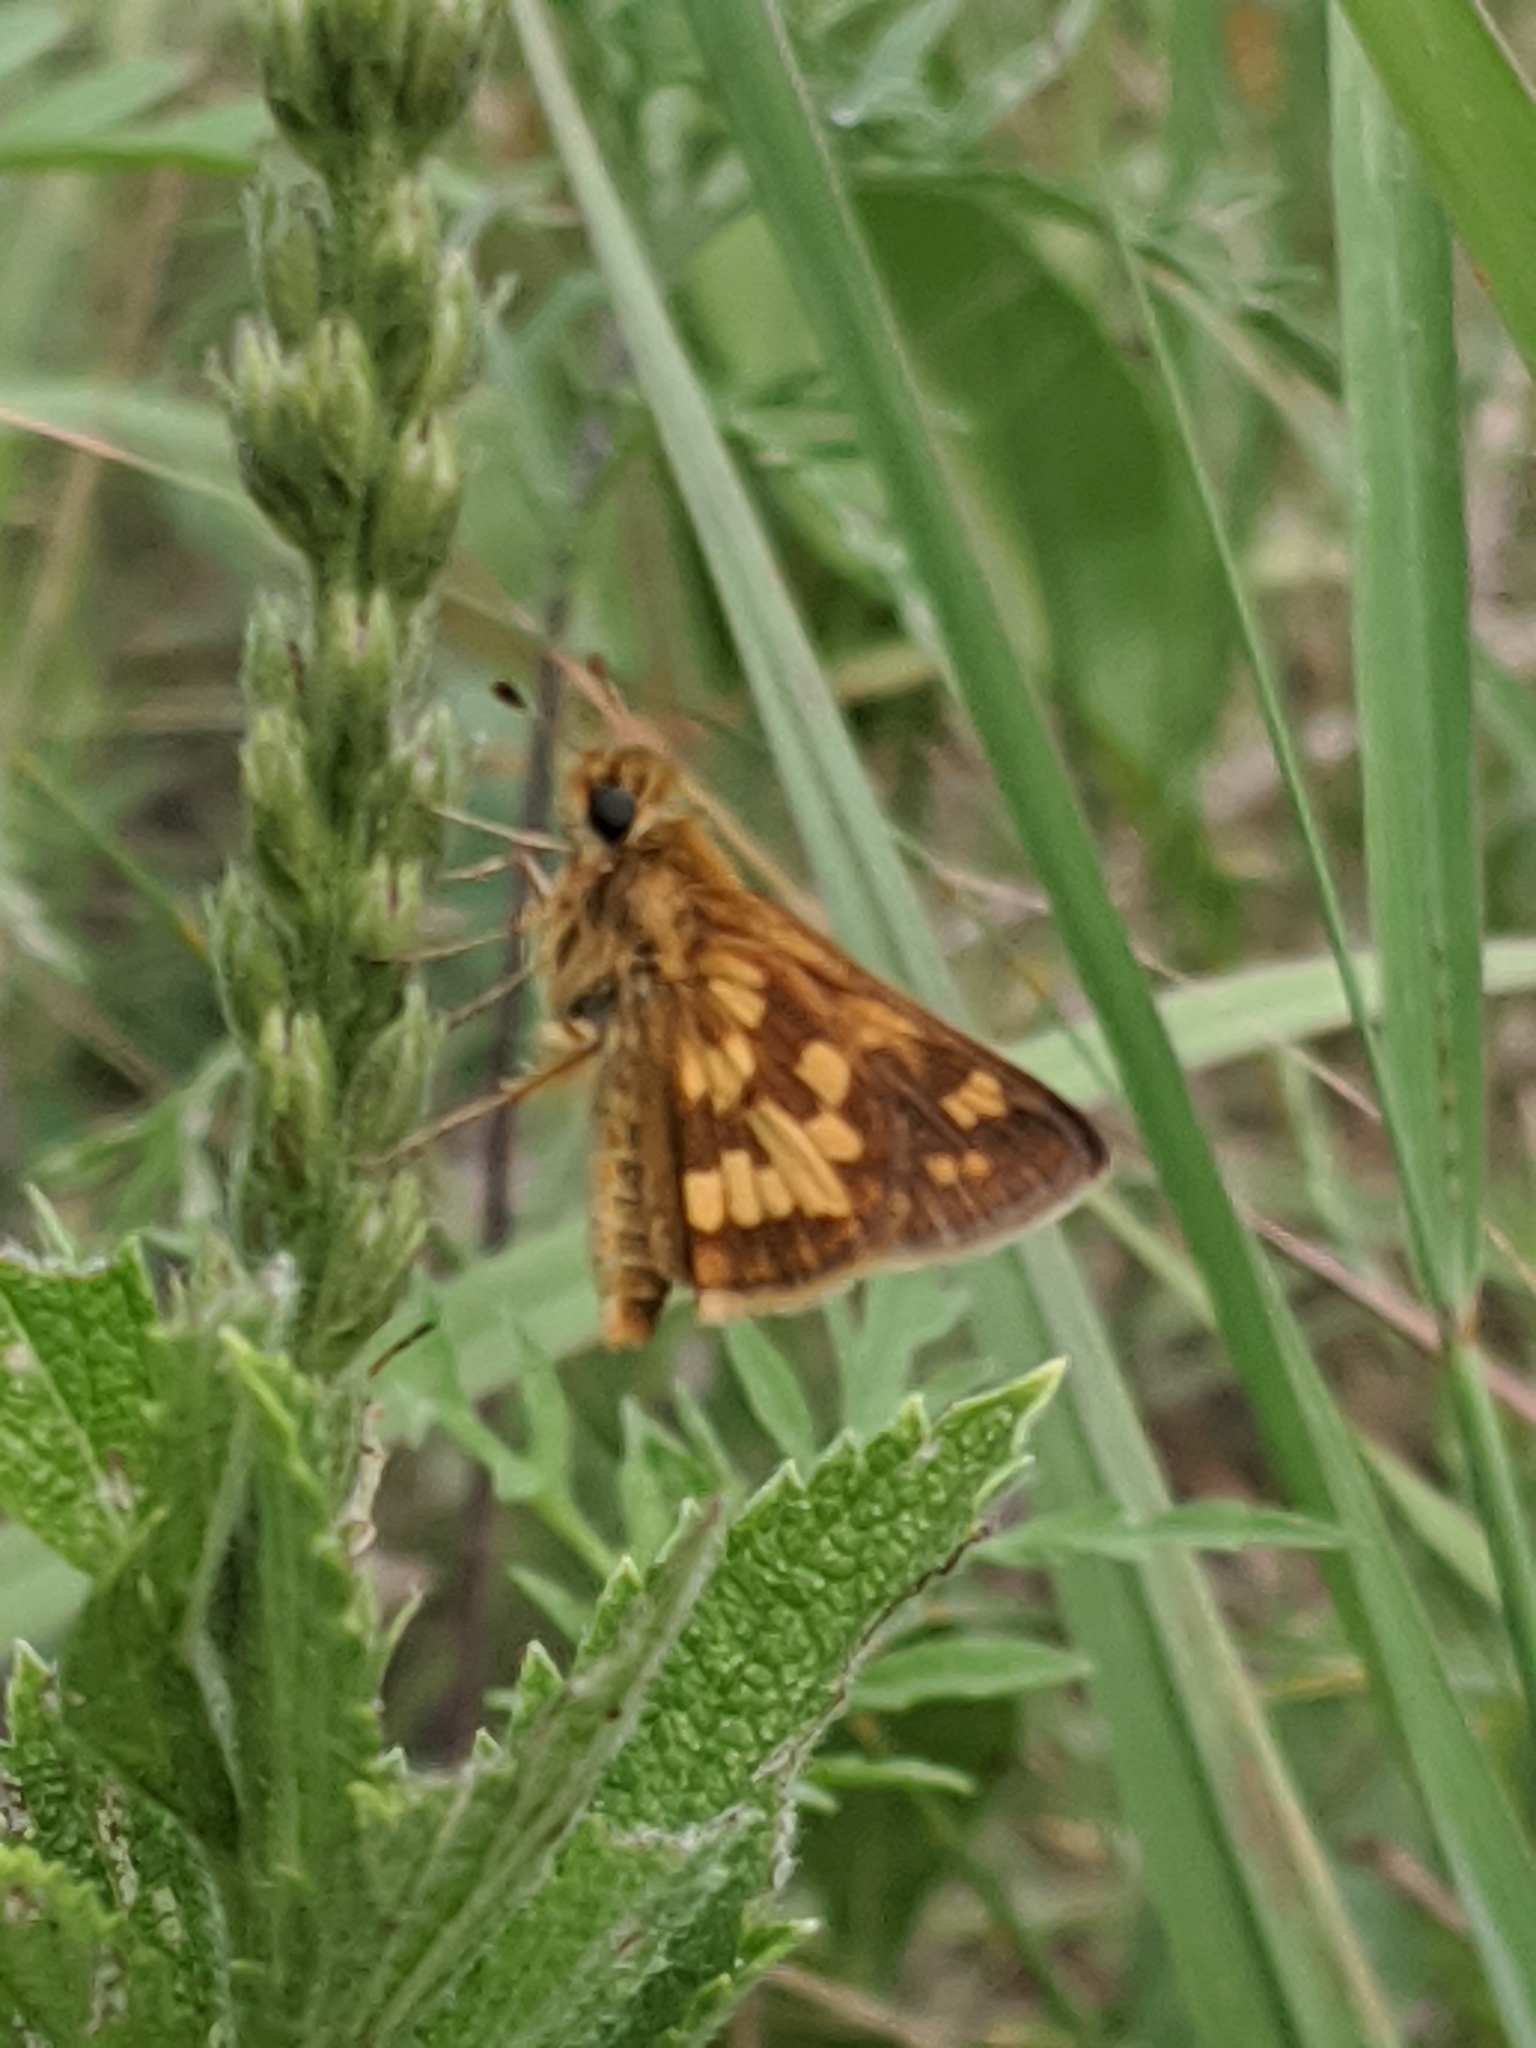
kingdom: Animalia
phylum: Arthropoda
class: Insecta
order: Lepidoptera
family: Hesperiidae
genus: Polites
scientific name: Polites coras
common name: Peck's skipper
